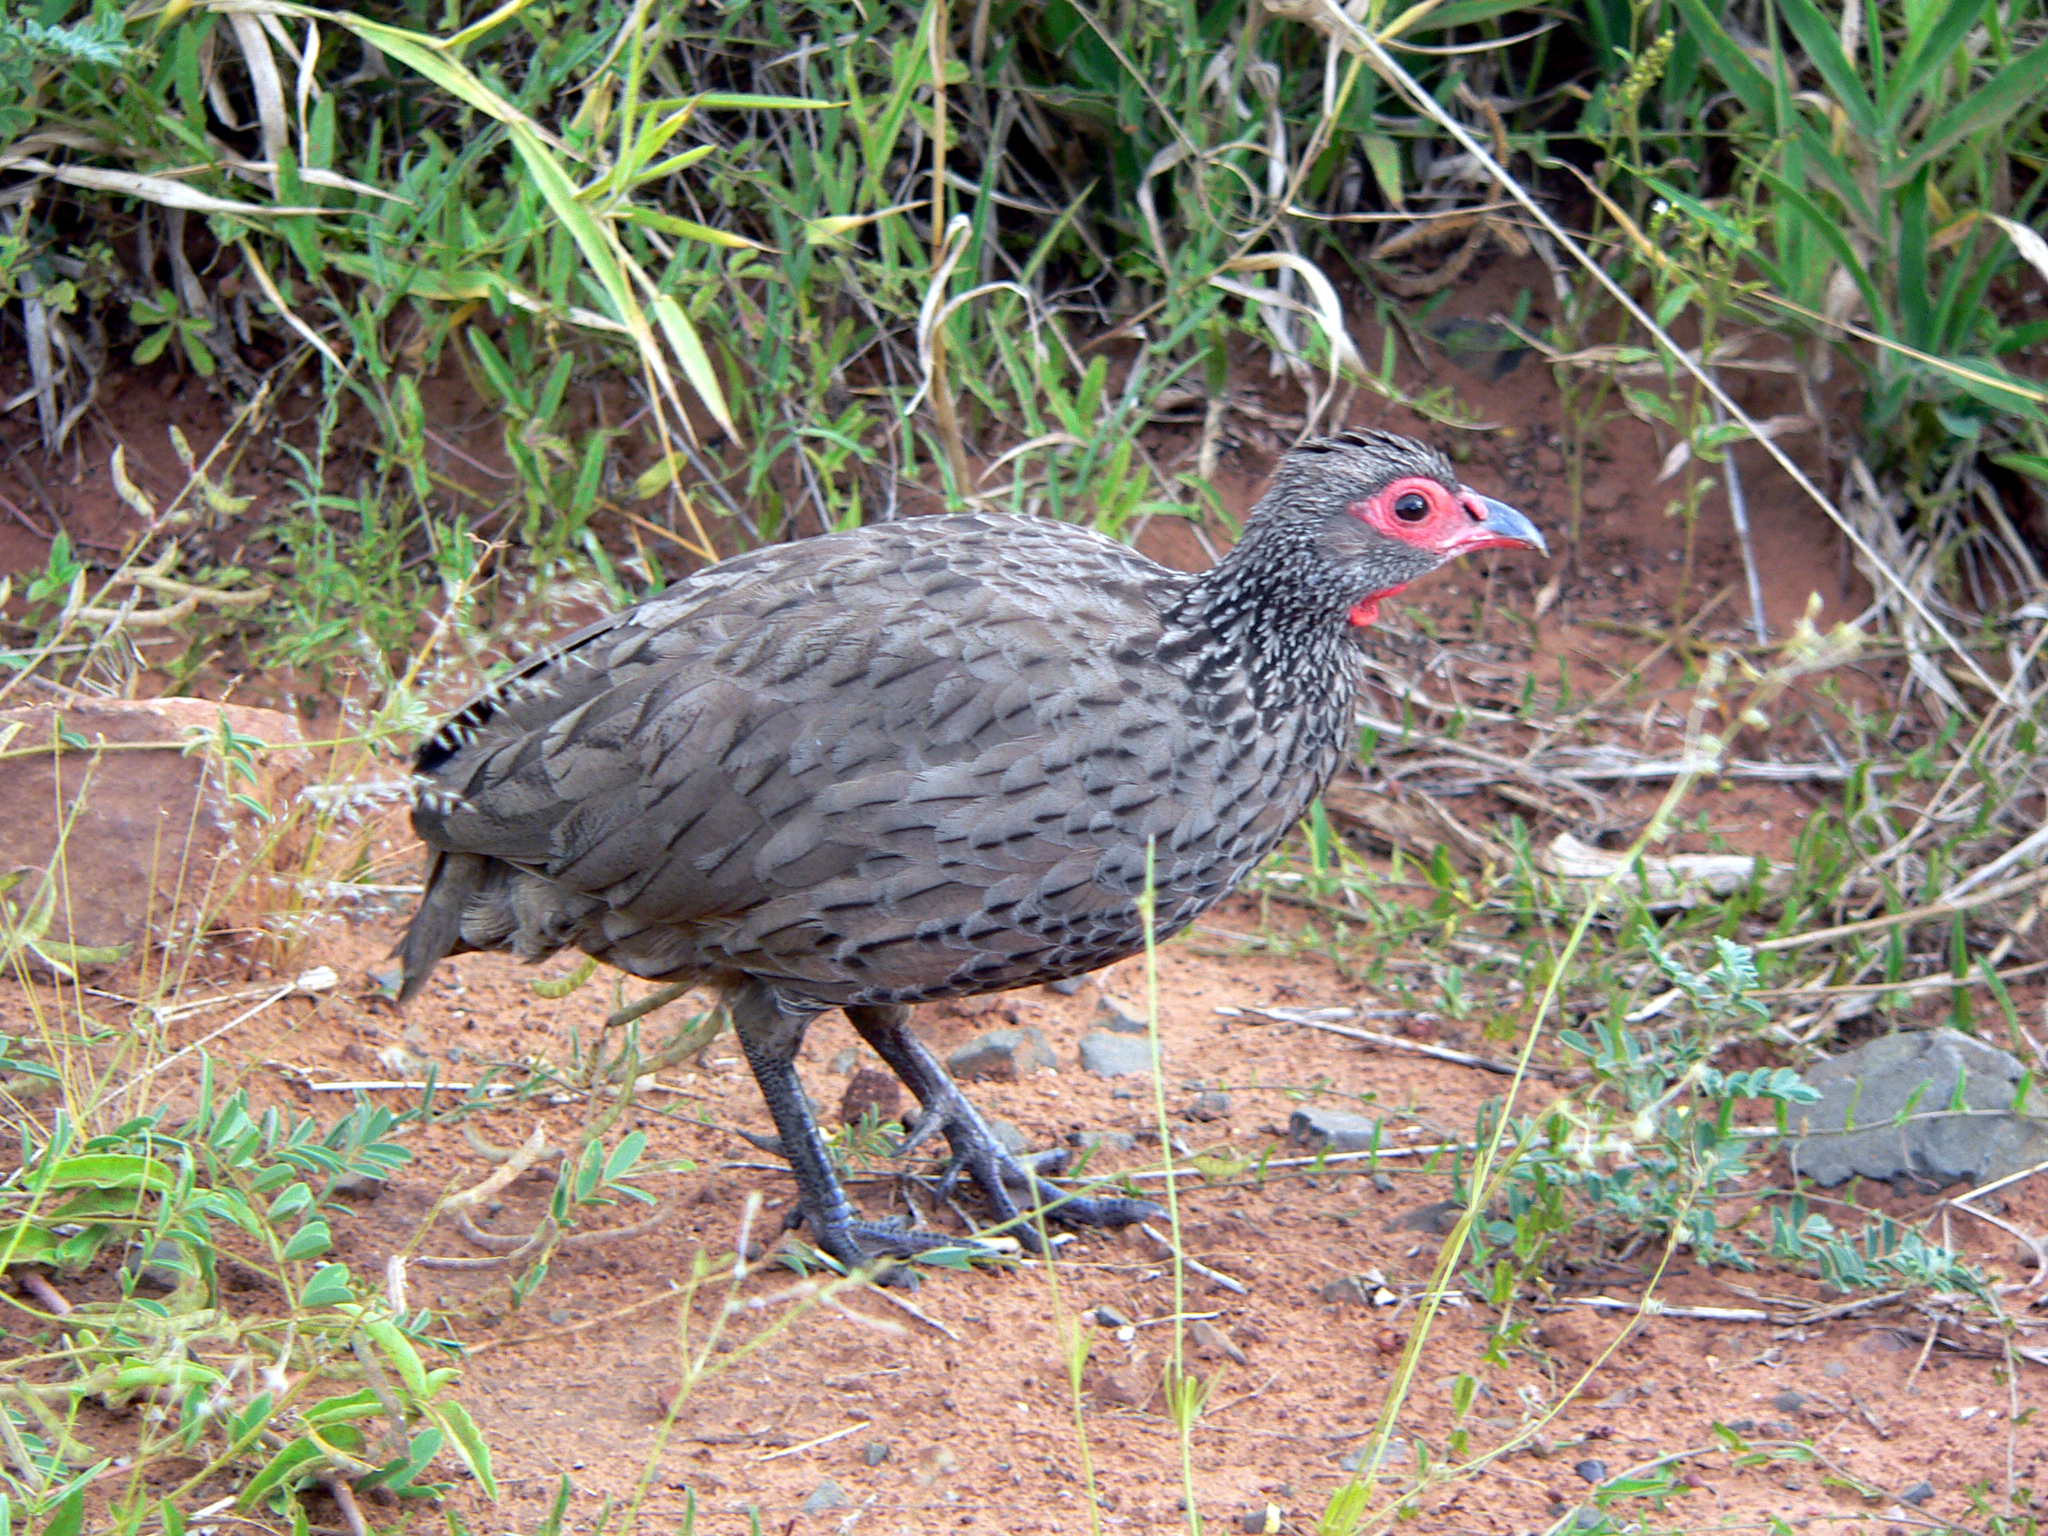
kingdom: Animalia
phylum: Chordata
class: Aves
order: Galliformes
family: Phasianidae
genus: Pternistis
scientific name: Pternistis swainsonii
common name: Swainson's spurfowl
